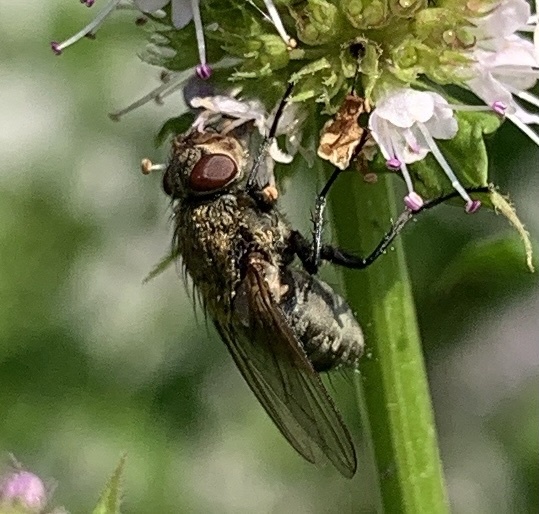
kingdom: Animalia
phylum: Arthropoda
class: Insecta
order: Diptera
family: Polleniidae
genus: Pollenia
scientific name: Pollenia
